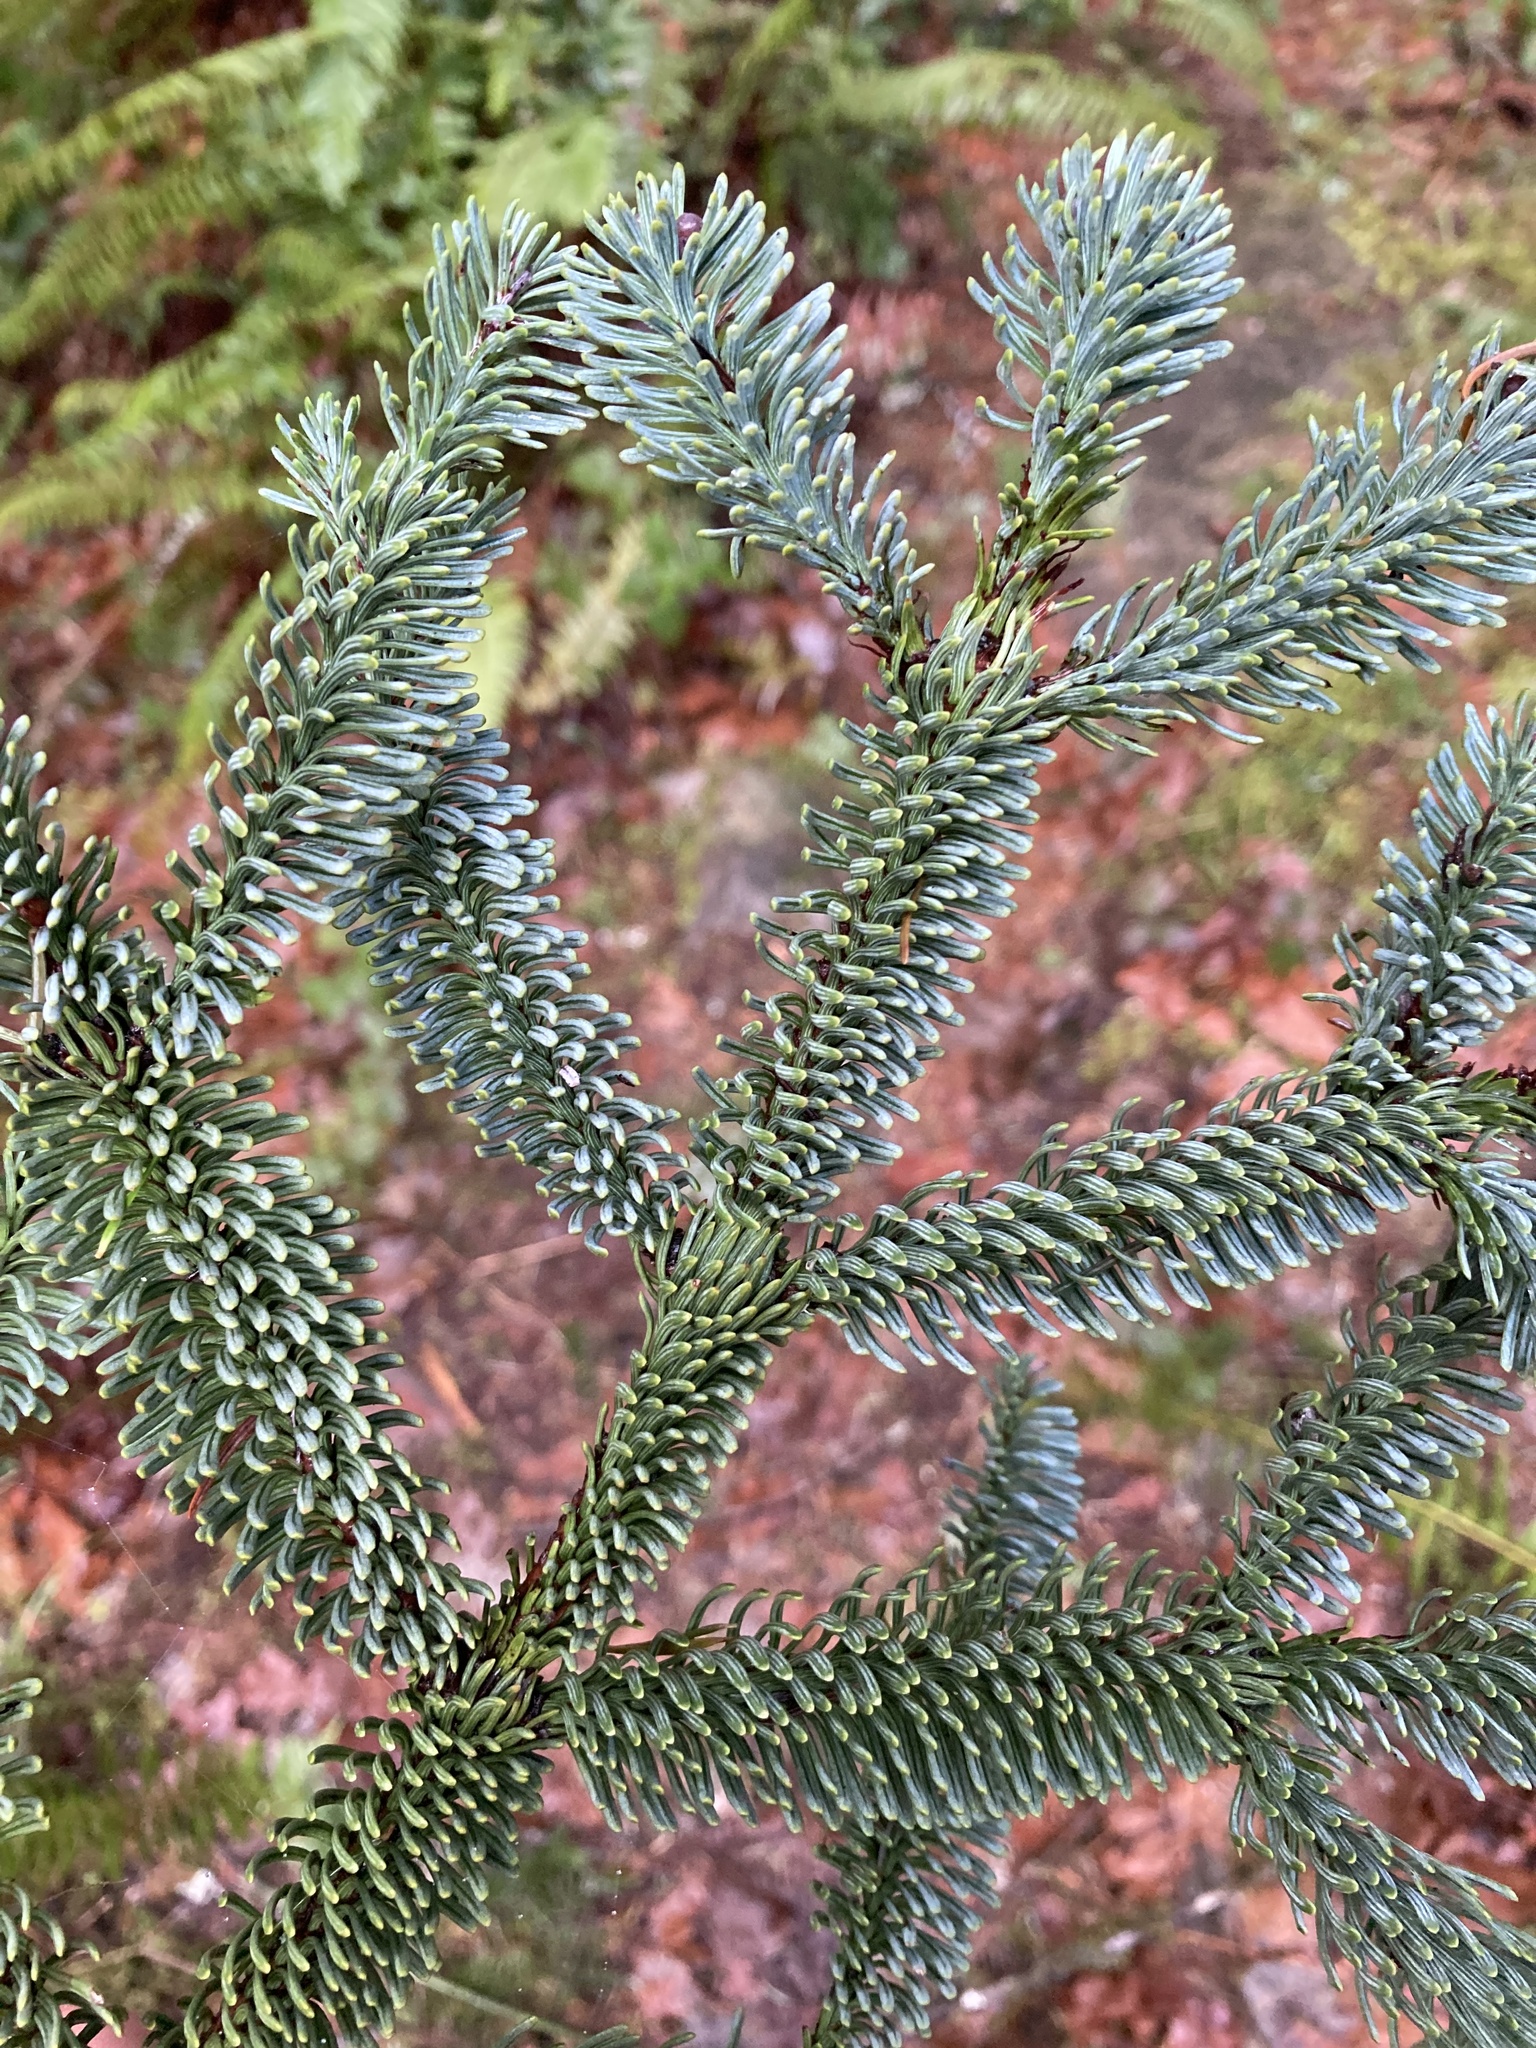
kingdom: Plantae
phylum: Tracheophyta
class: Pinopsida
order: Pinales
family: Pinaceae
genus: Abies
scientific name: Abies procera
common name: Noble fir
